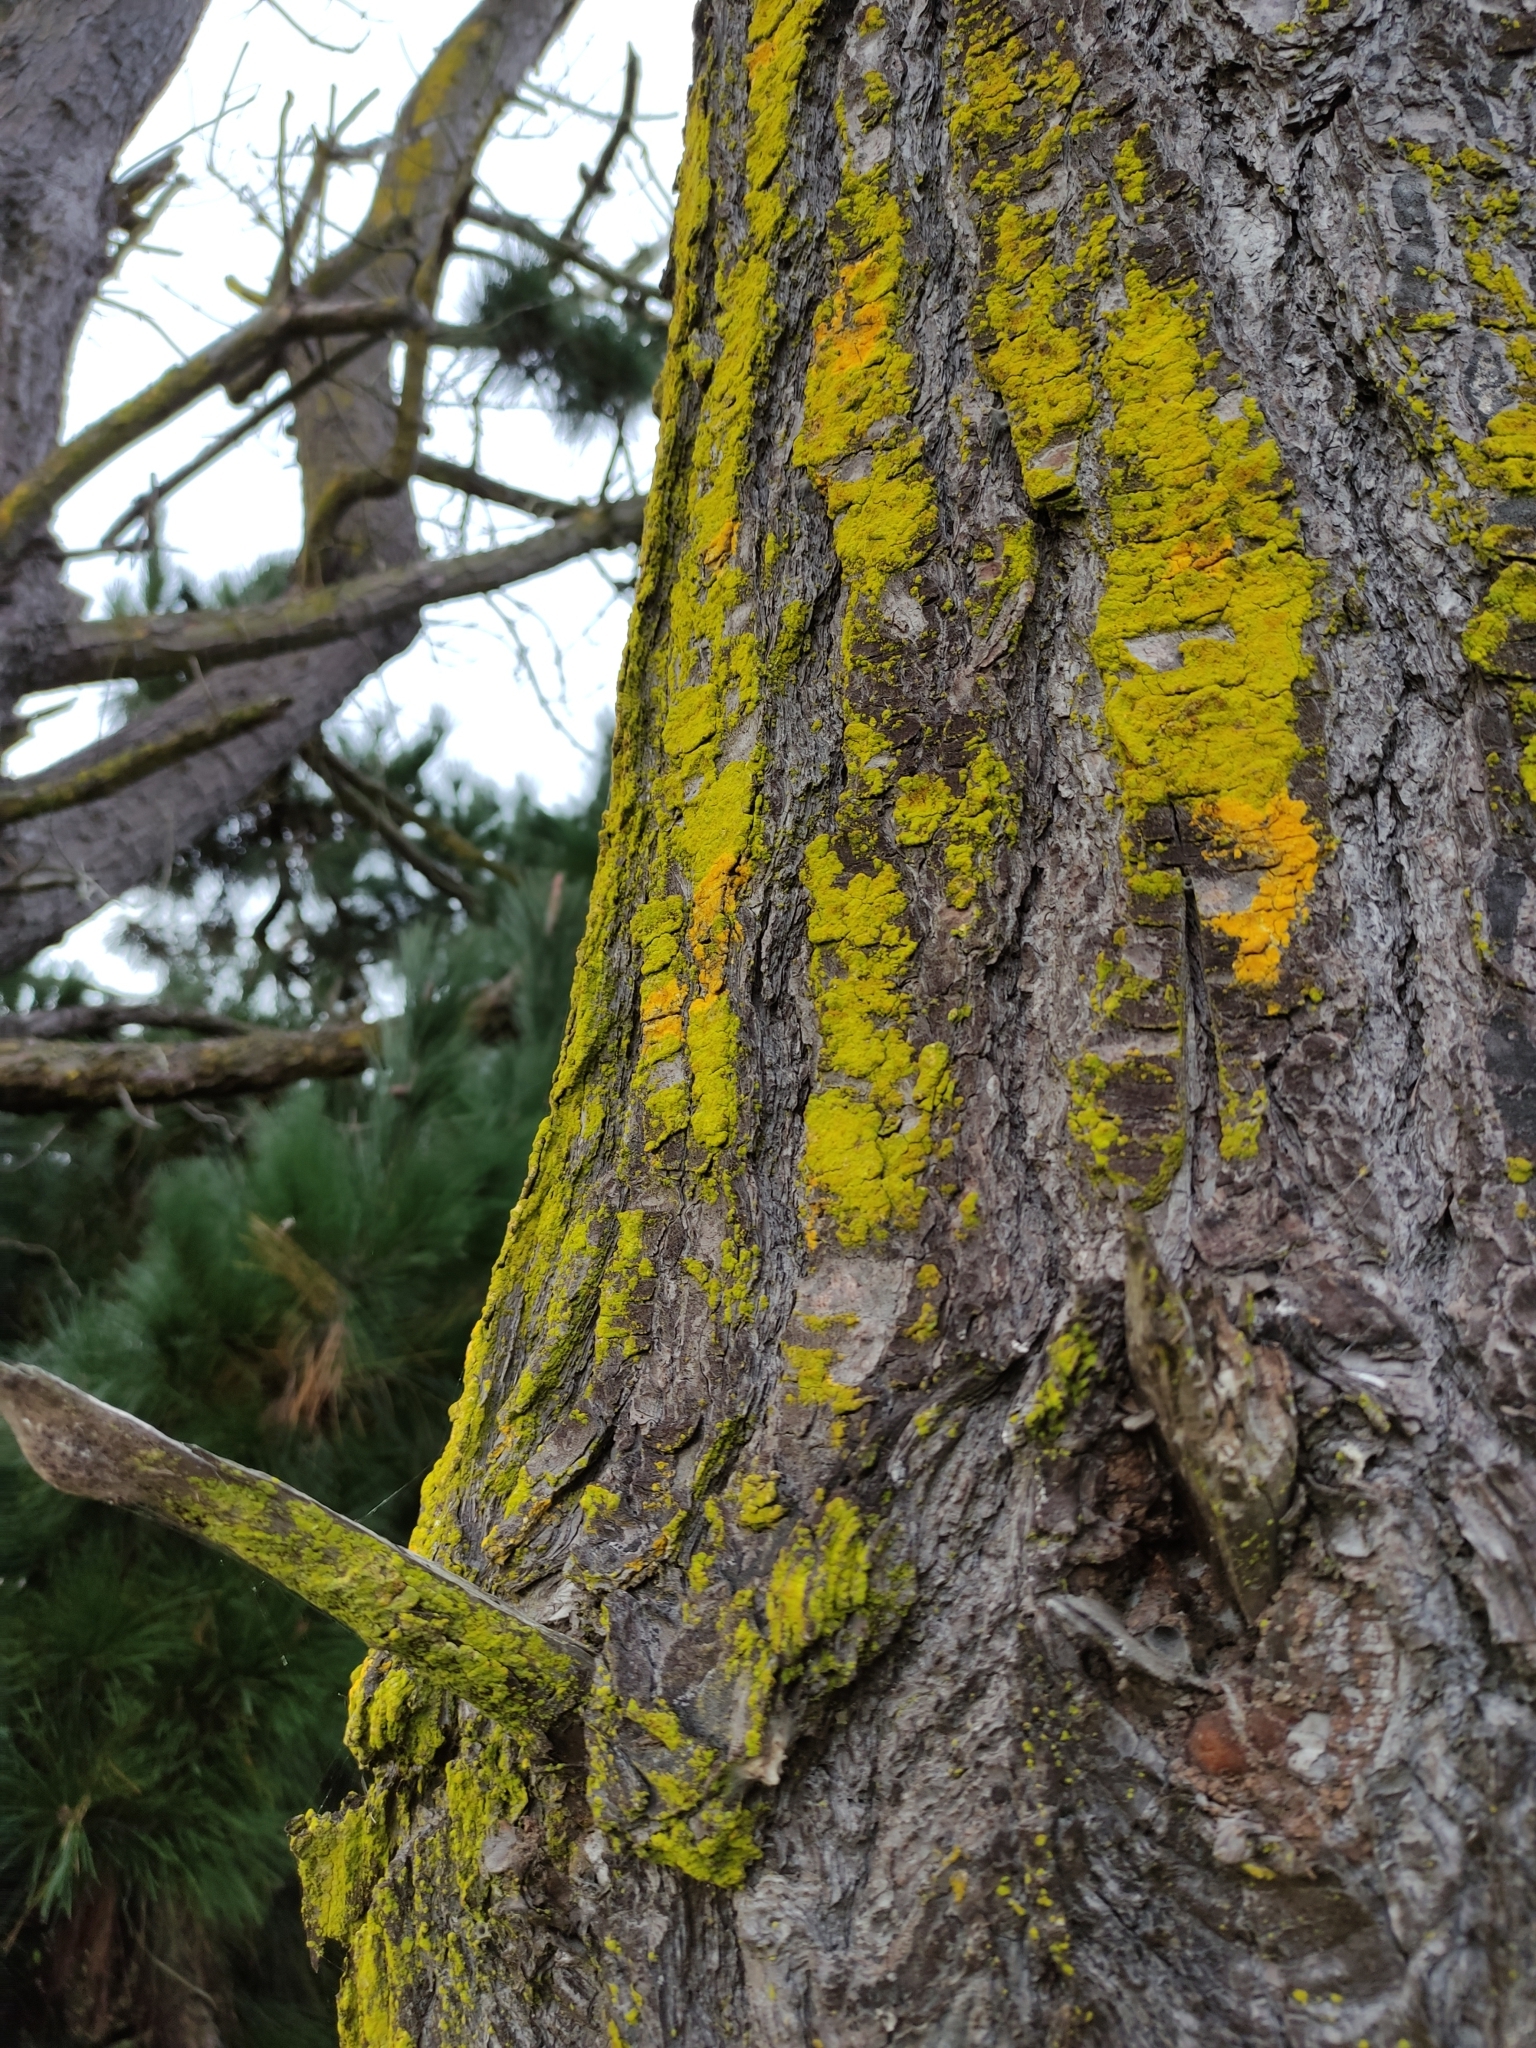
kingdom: Fungi
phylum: Ascomycota
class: Arthoniomycetes
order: Arthoniales
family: Chrysotrichaceae
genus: Chrysothrix
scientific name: Chrysothrix candelaris
